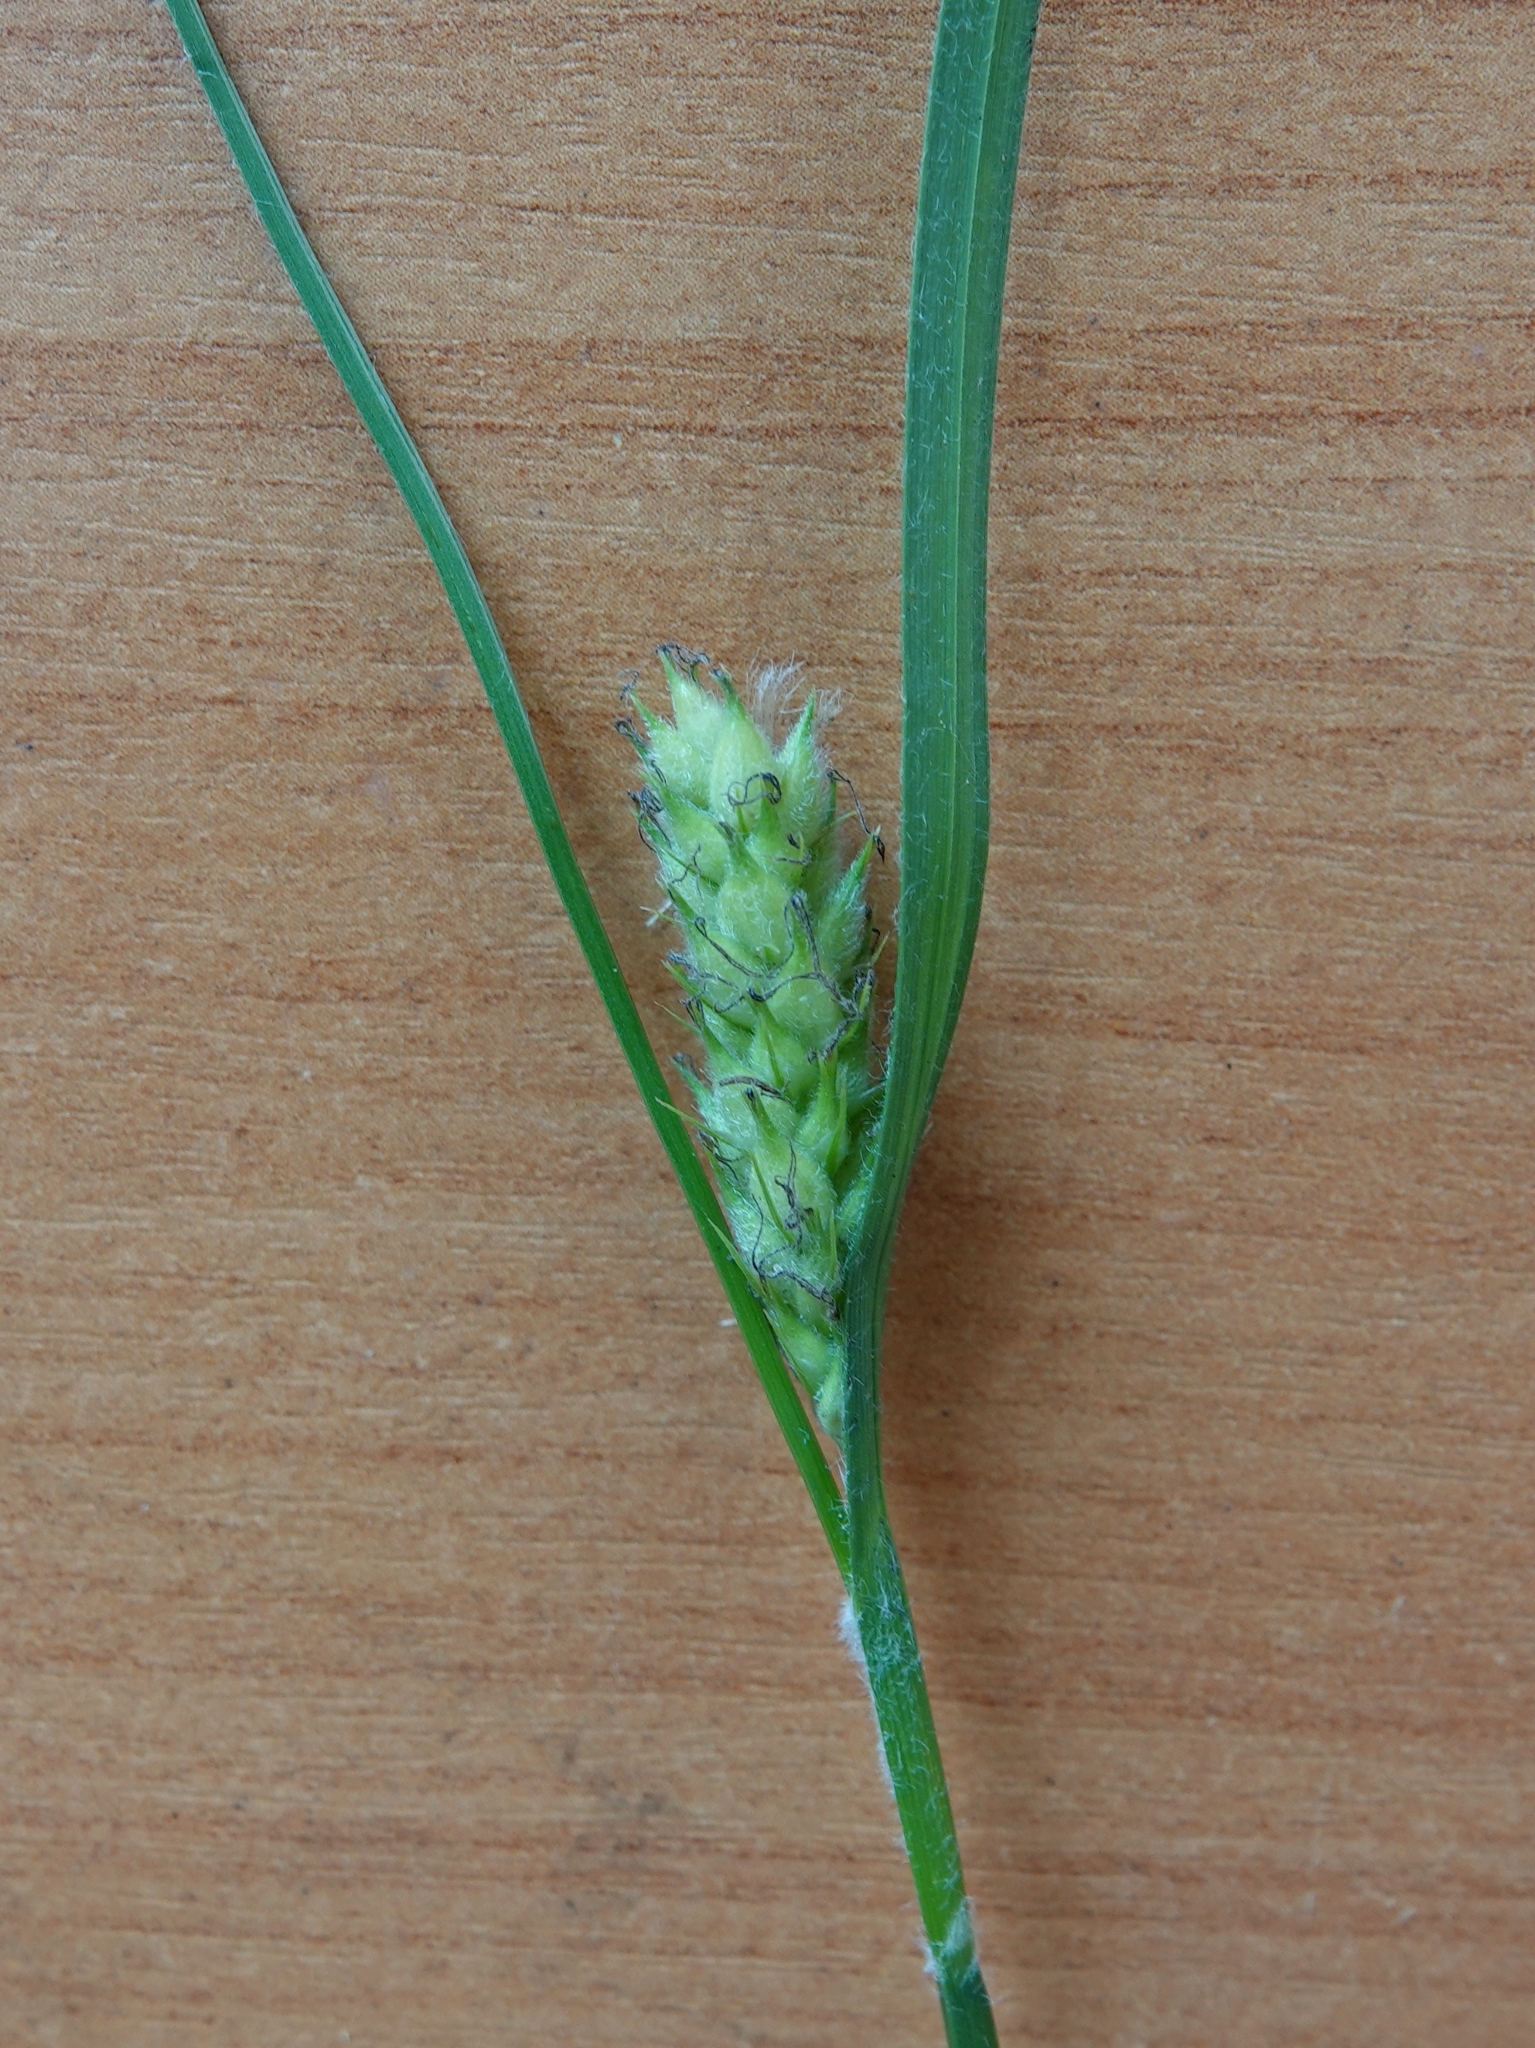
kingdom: Plantae
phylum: Tracheophyta
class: Liliopsida
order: Poales
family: Cyperaceae
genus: Carex
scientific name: Carex hirta
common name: Hairy sedge
